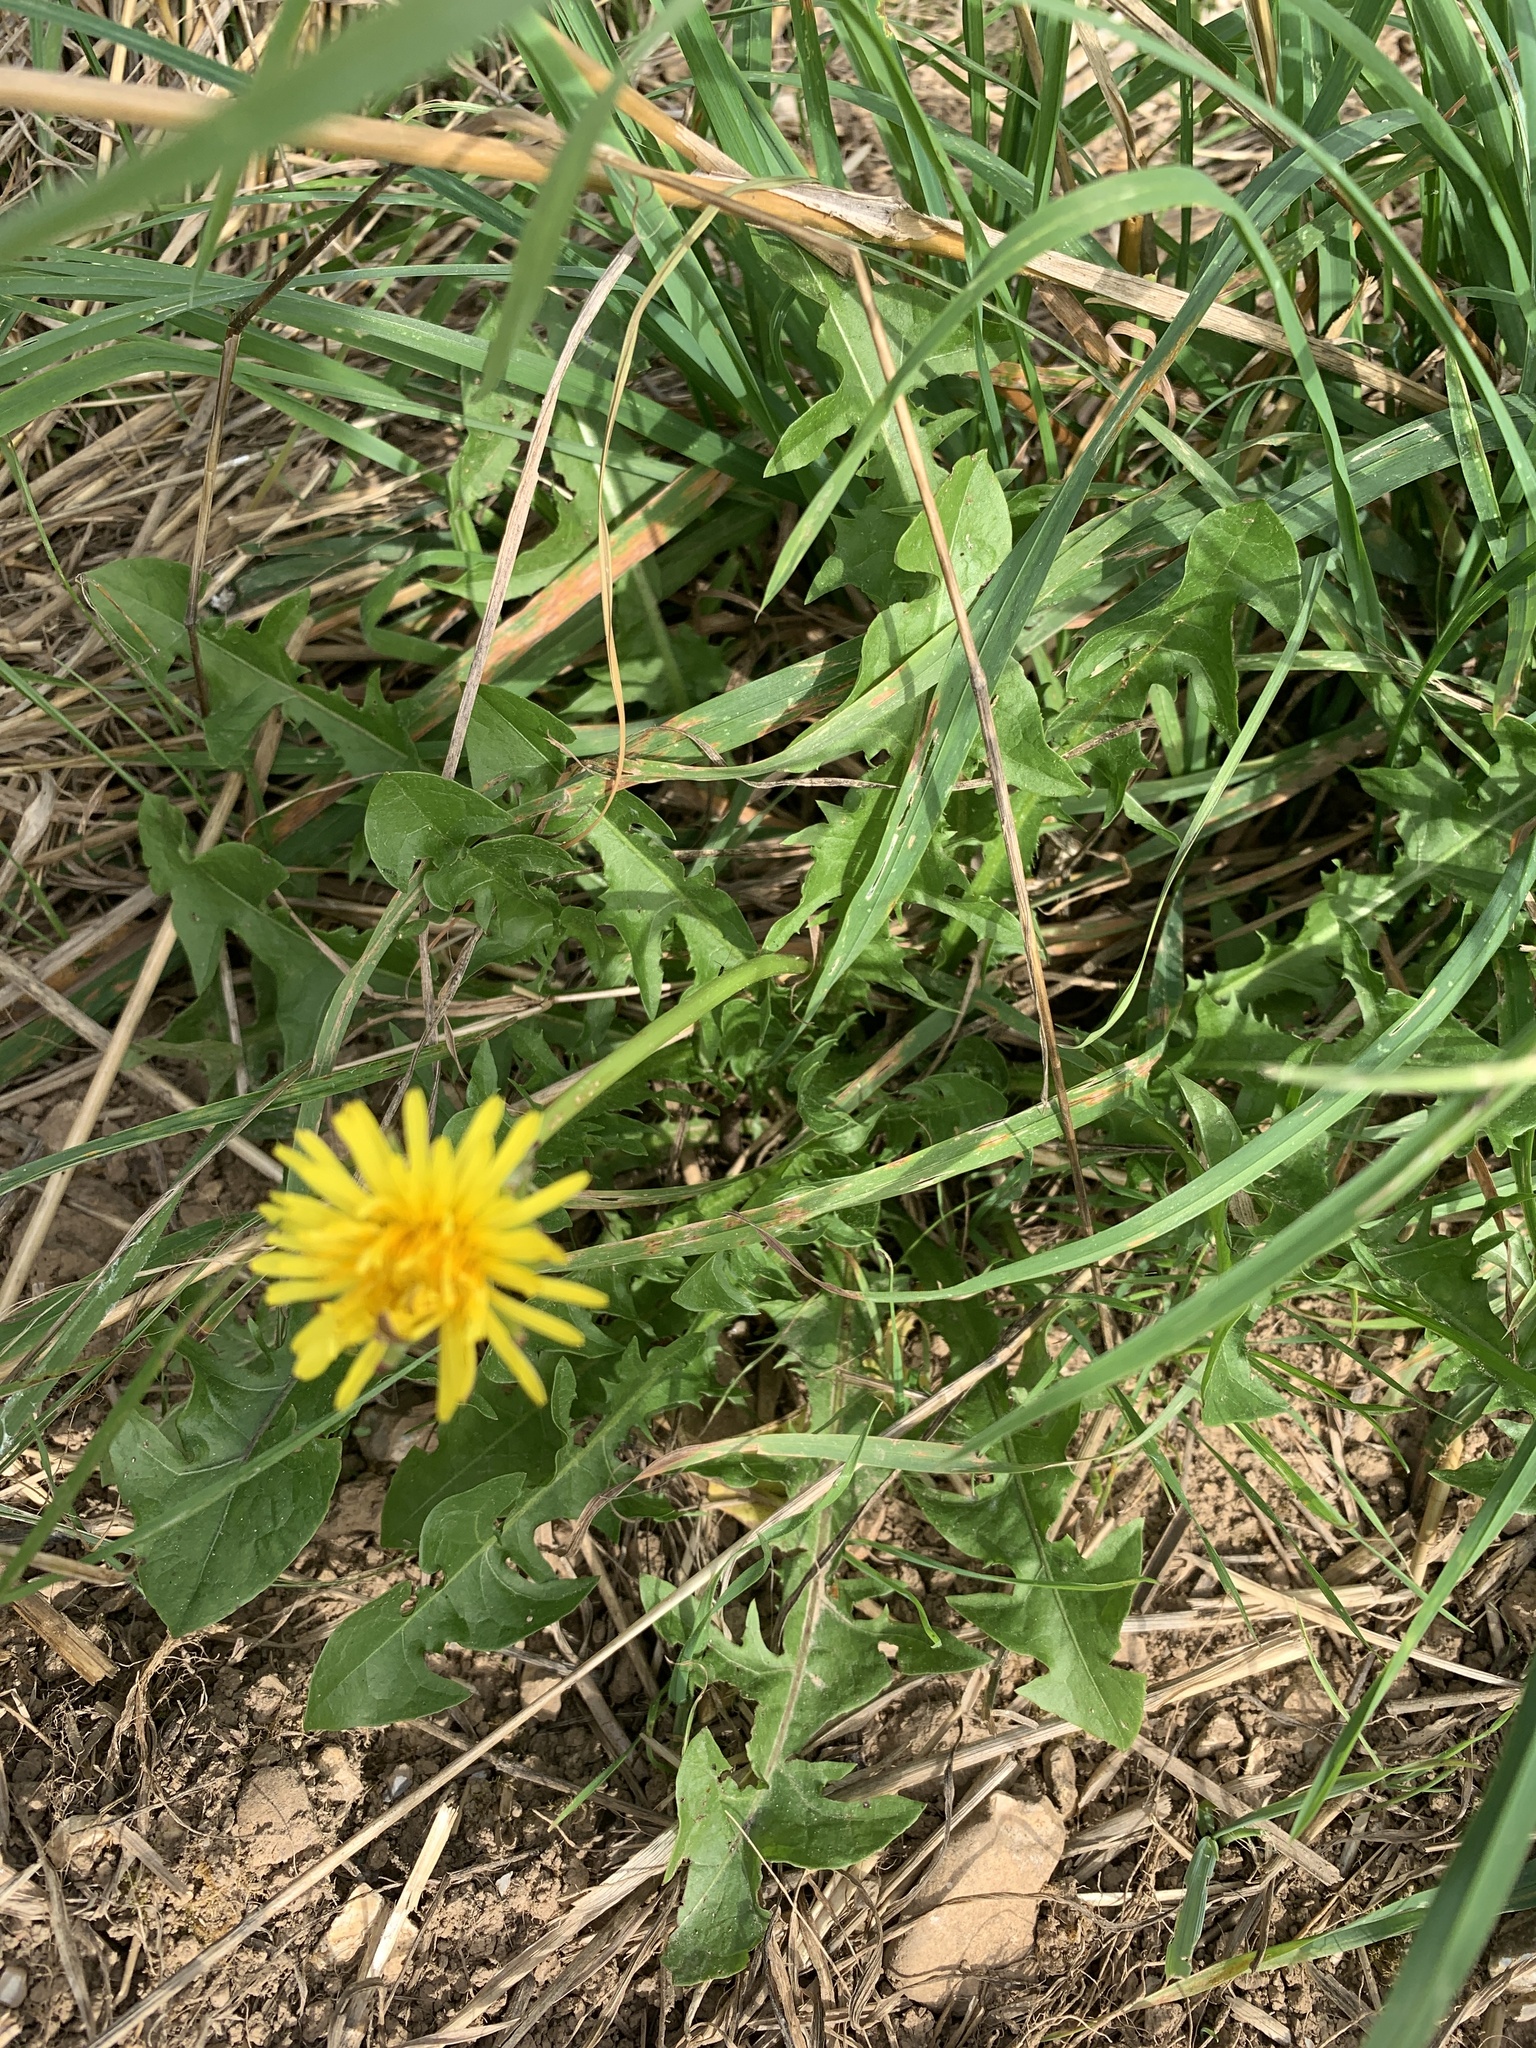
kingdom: Plantae
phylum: Tracheophyta
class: Magnoliopsida
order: Asterales
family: Asteraceae
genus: Taraxacum
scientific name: Taraxacum officinale
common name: Common dandelion
